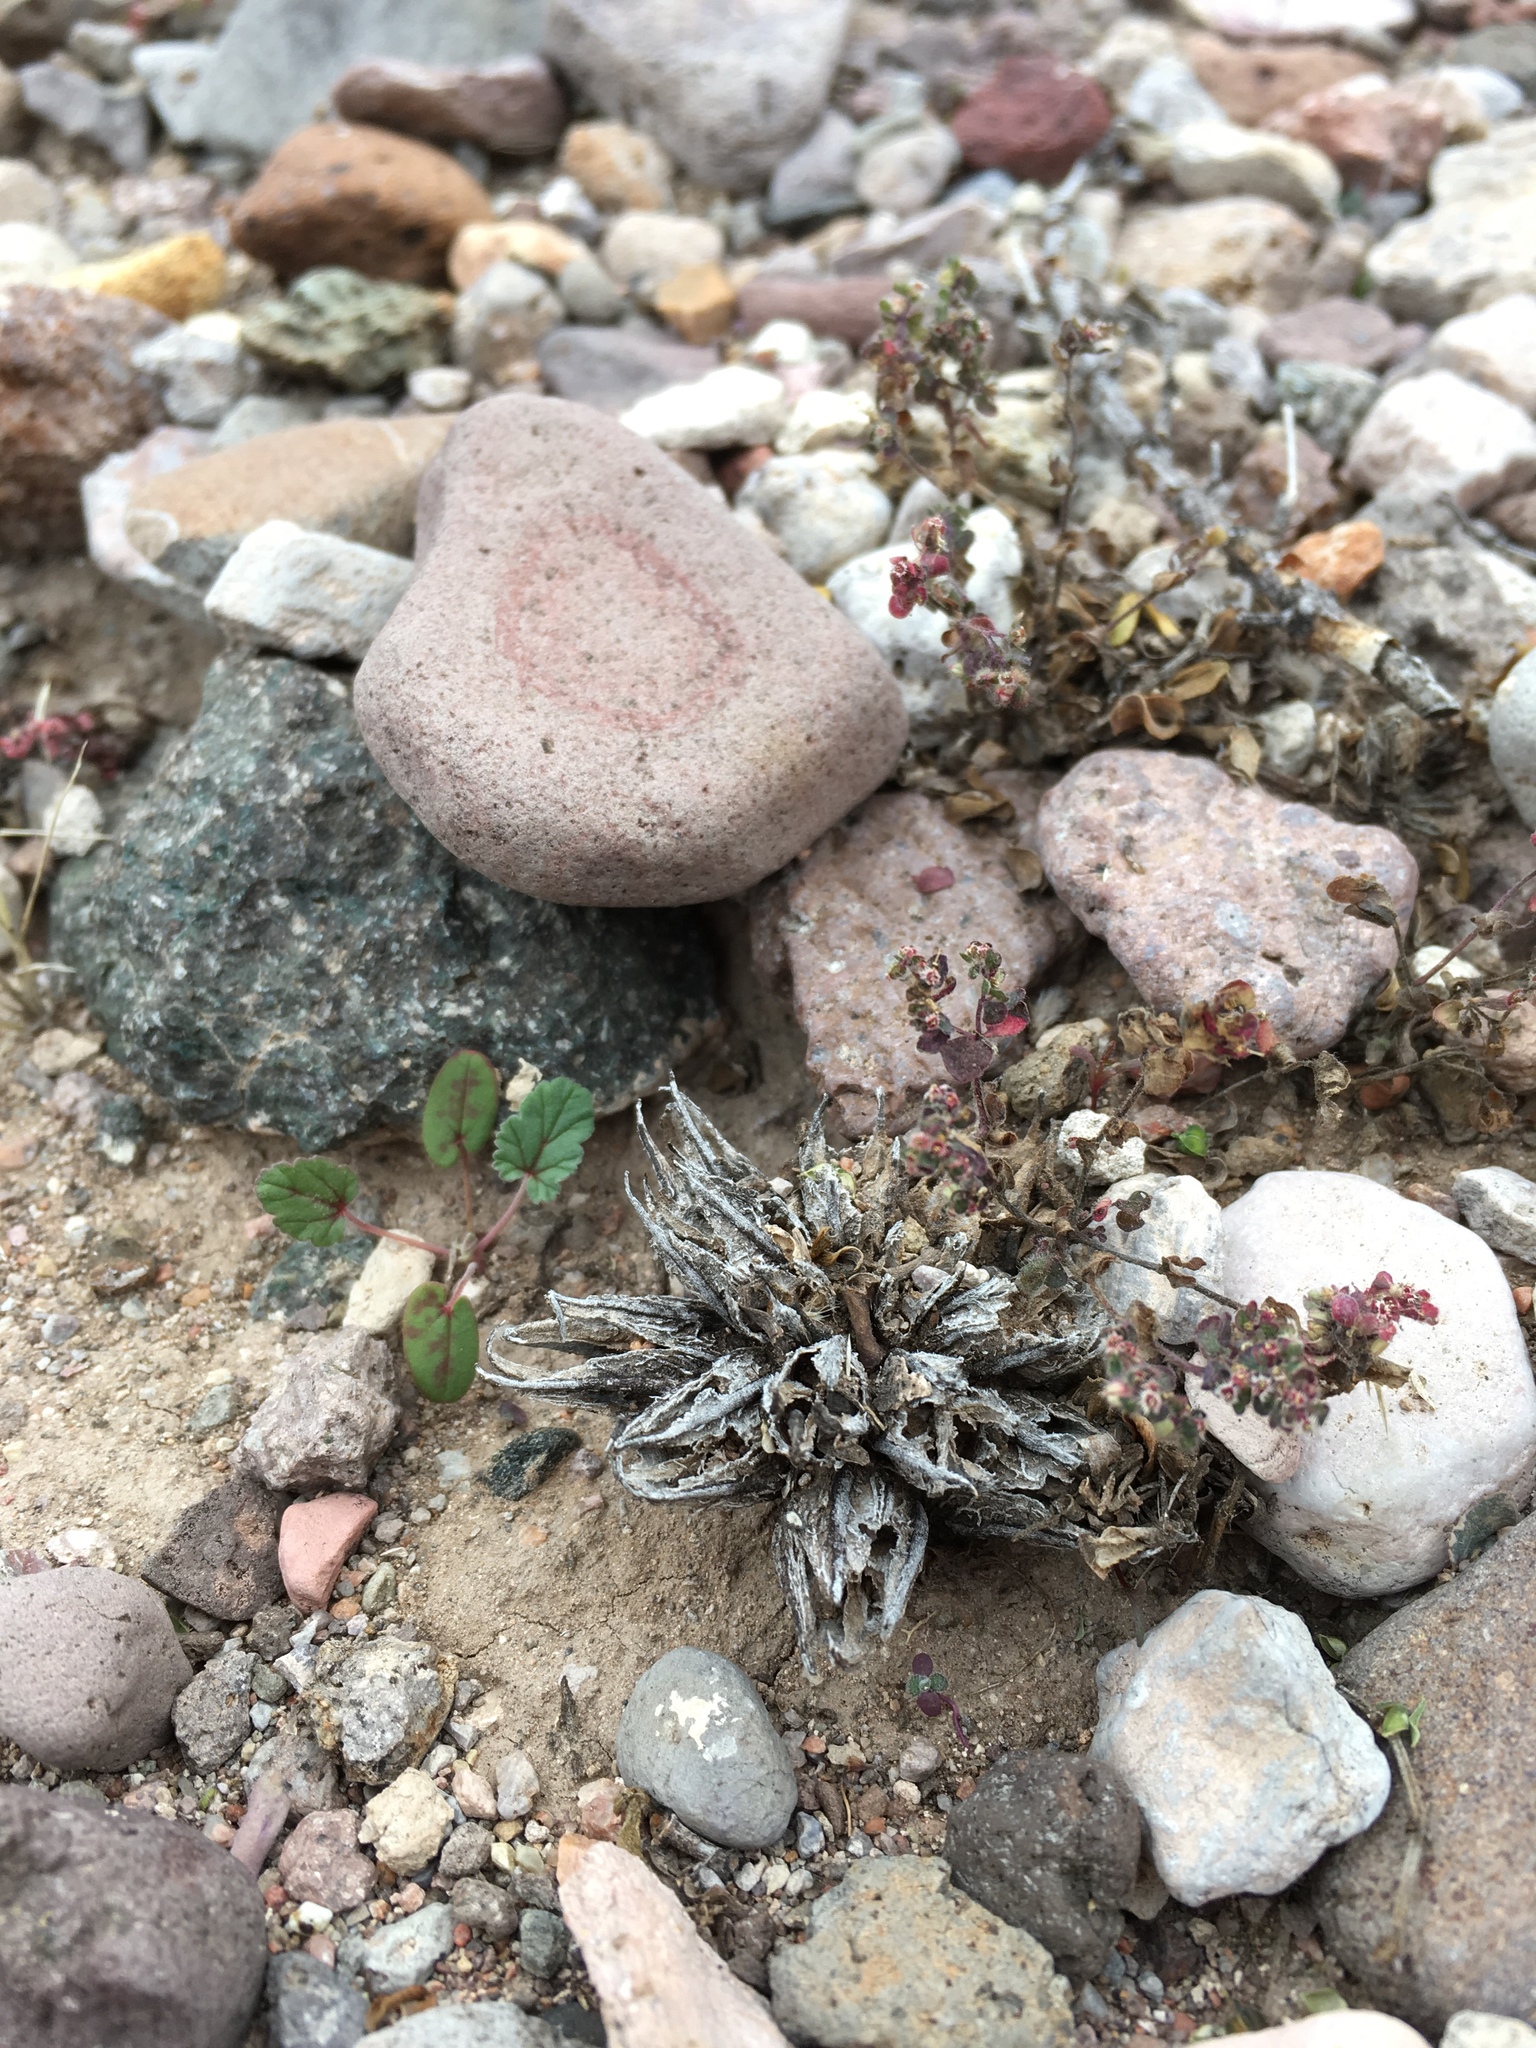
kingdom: Plantae
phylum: Tracheophyta
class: Magnoliopsida
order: Myrtales
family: Onagraceae
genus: Oenothera
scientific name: Oenothera primiveris
